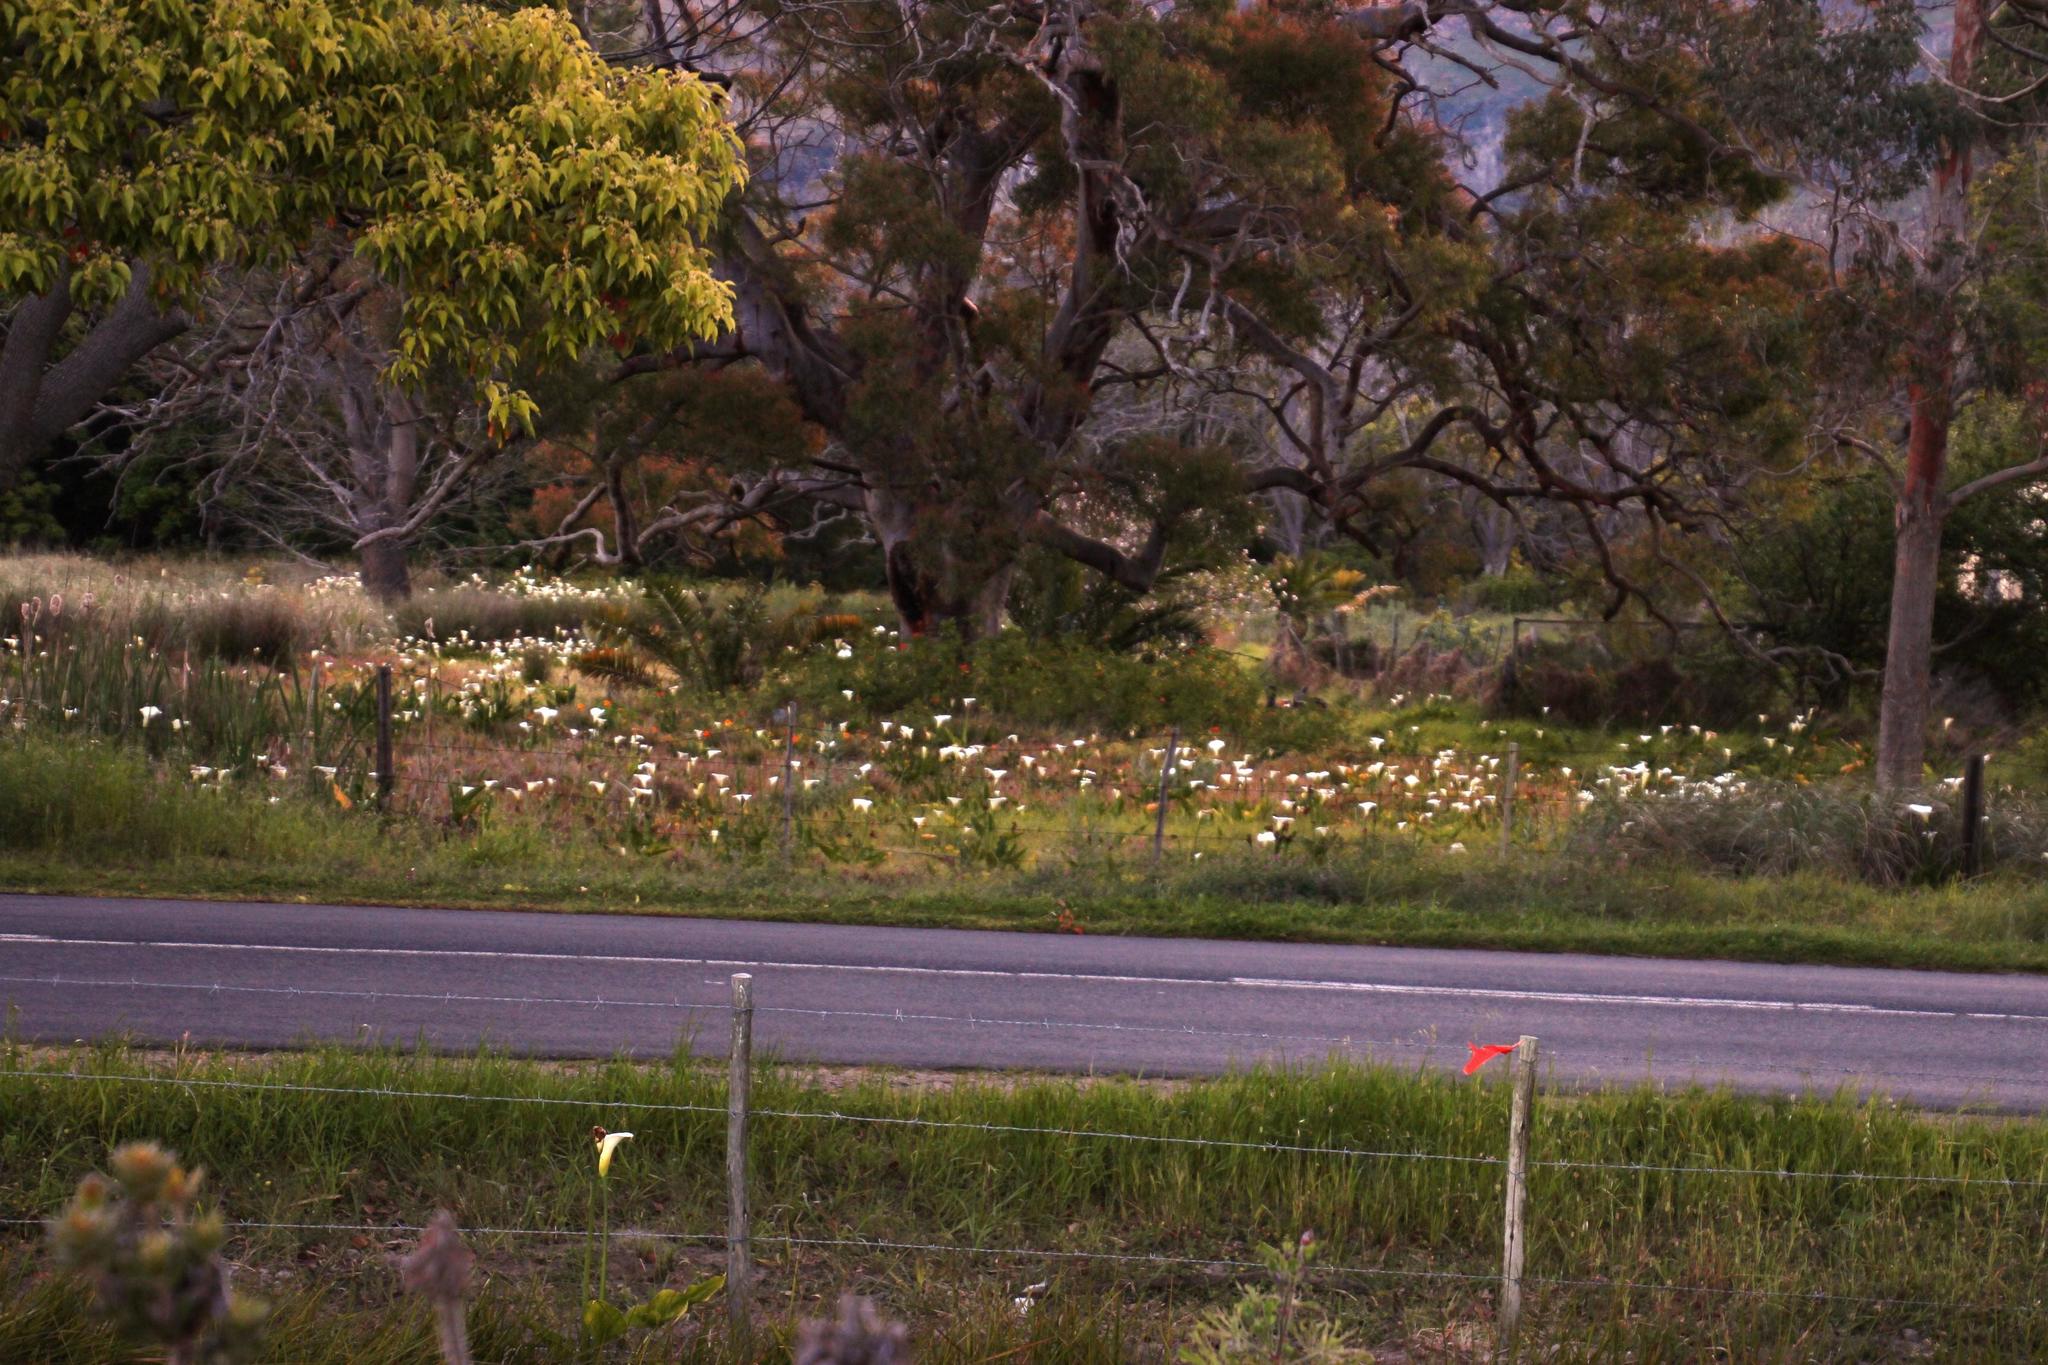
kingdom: Plantae
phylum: Tracheophyta
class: Liliopsida
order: Alismatales
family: Araceae
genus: Zantedeschia
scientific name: Zantedeschia aethiopica
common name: Altar-lily
